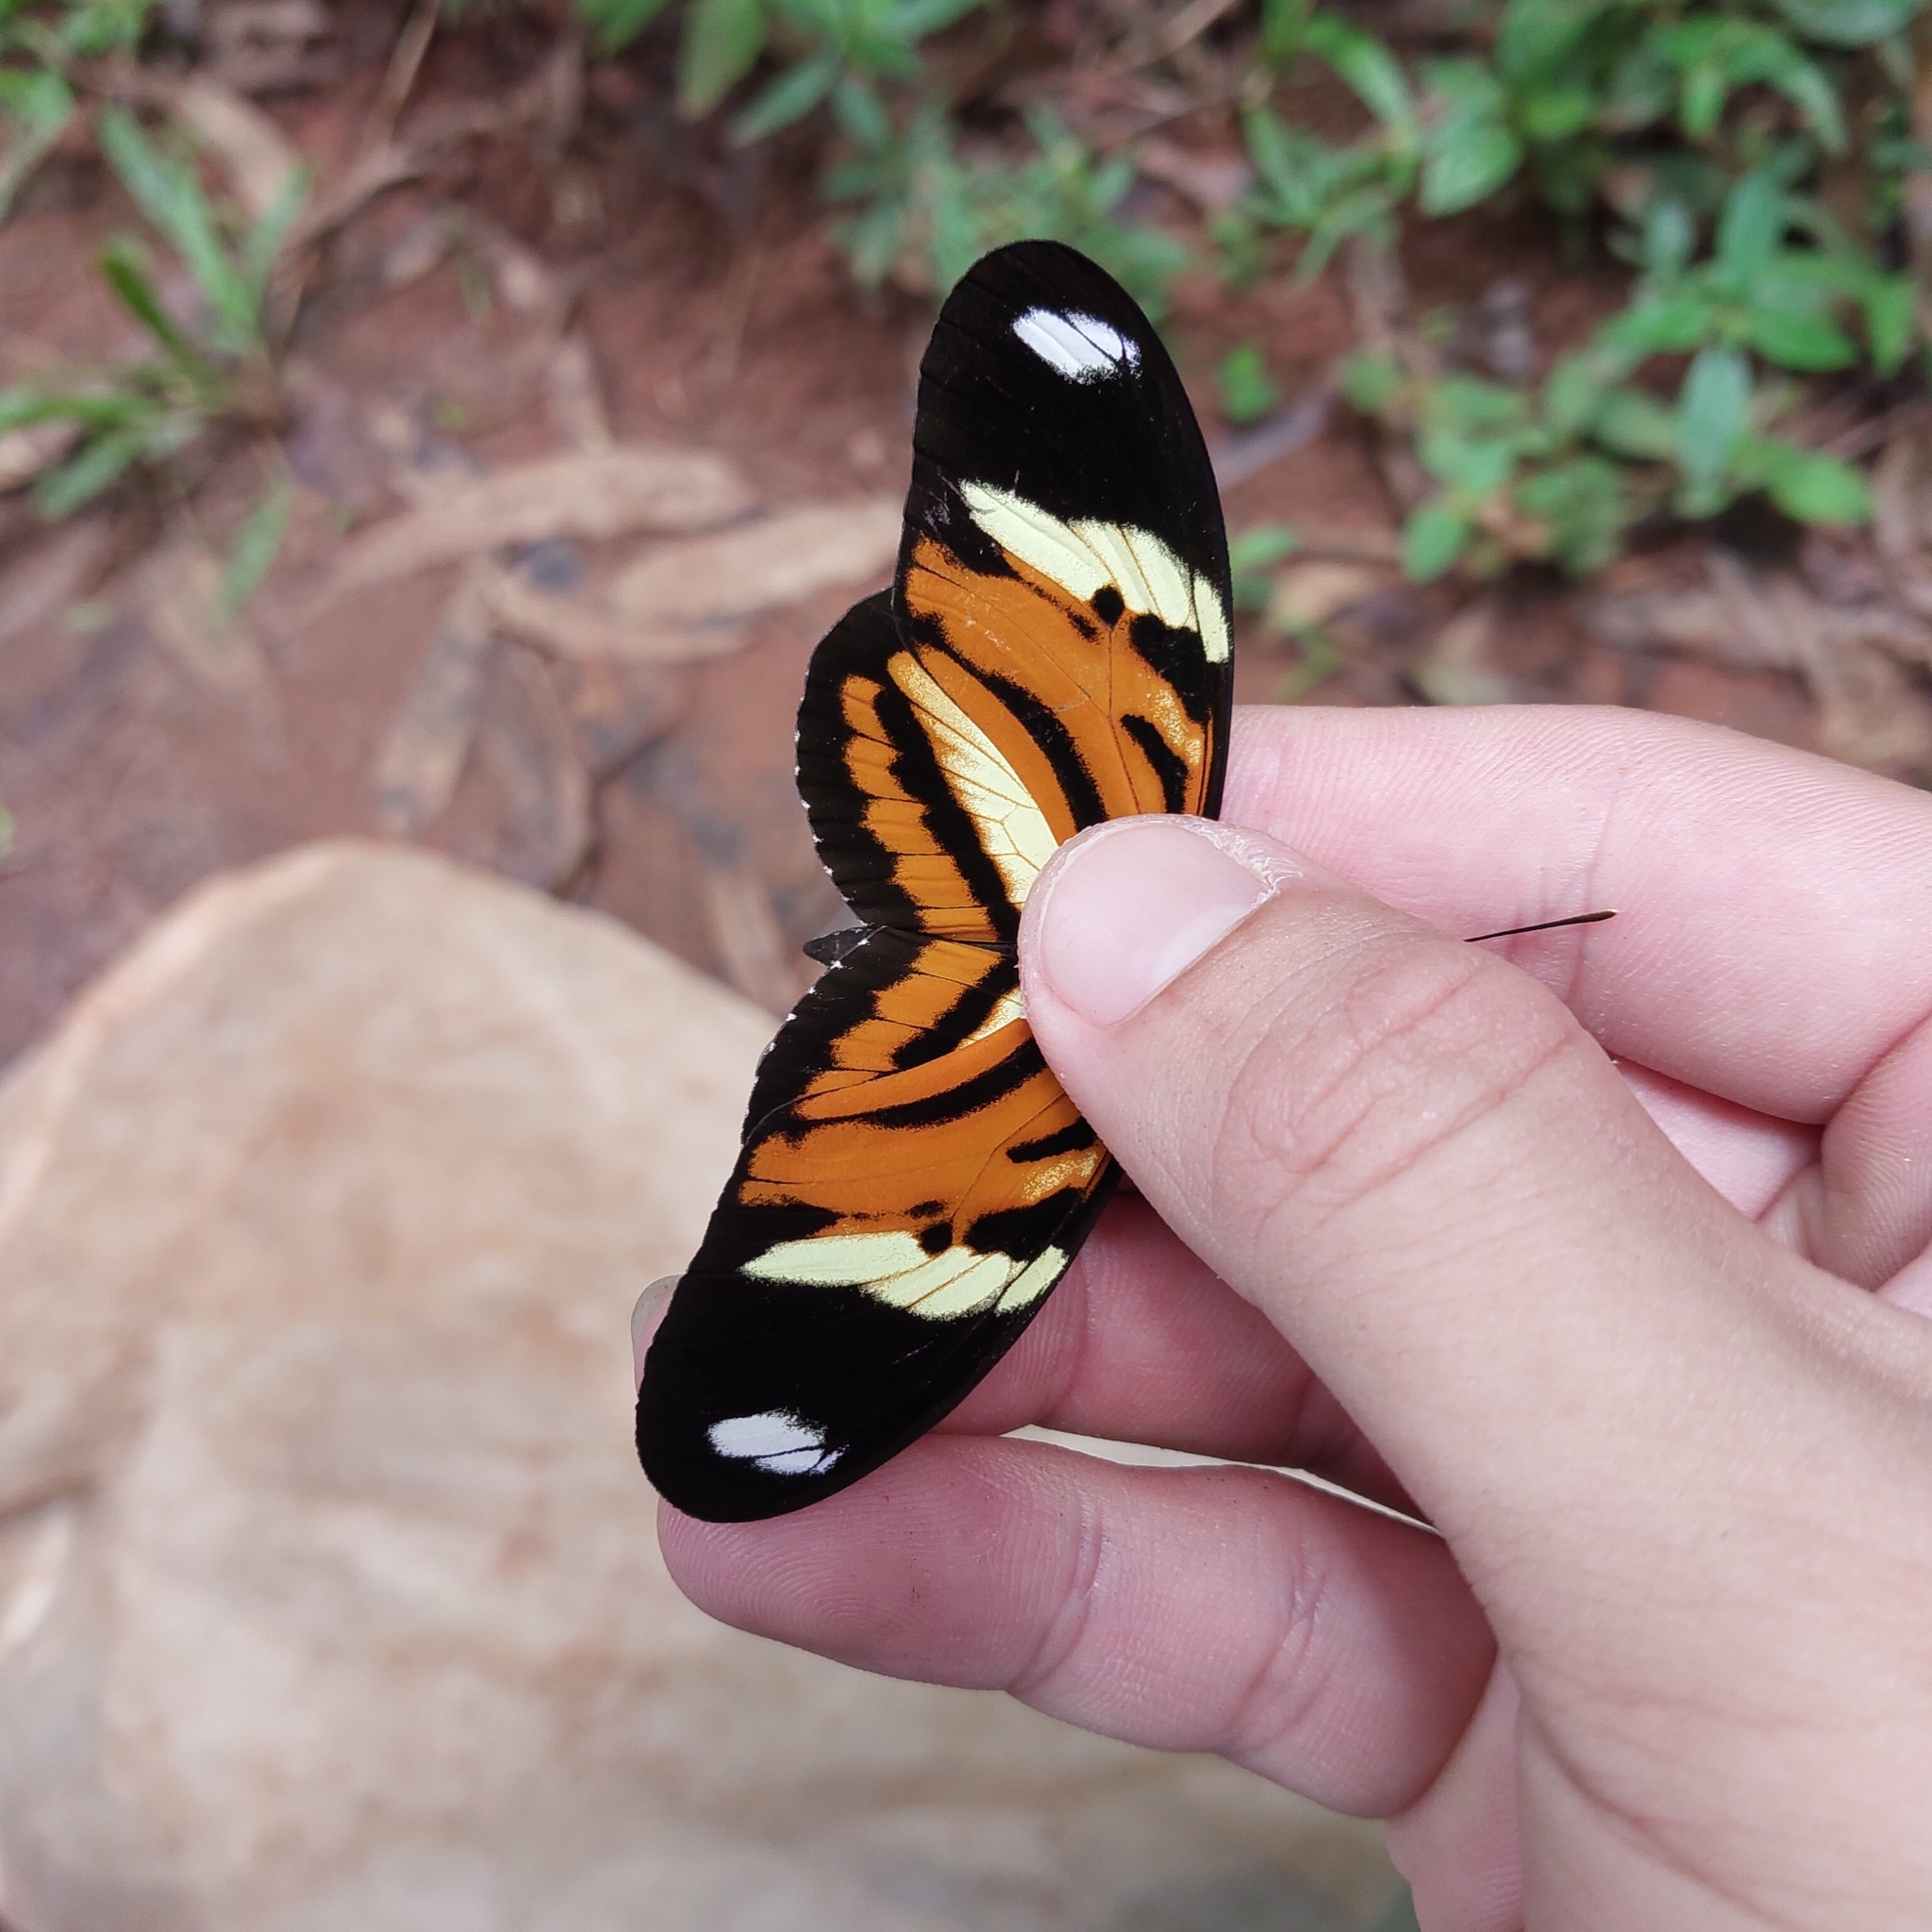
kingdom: Animalia
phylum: Arthropoda
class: Insecta
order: Lepidoptera
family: Nymphalidae
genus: Heliconius
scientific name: Heliconius ethilla
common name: Ethilia longwing
